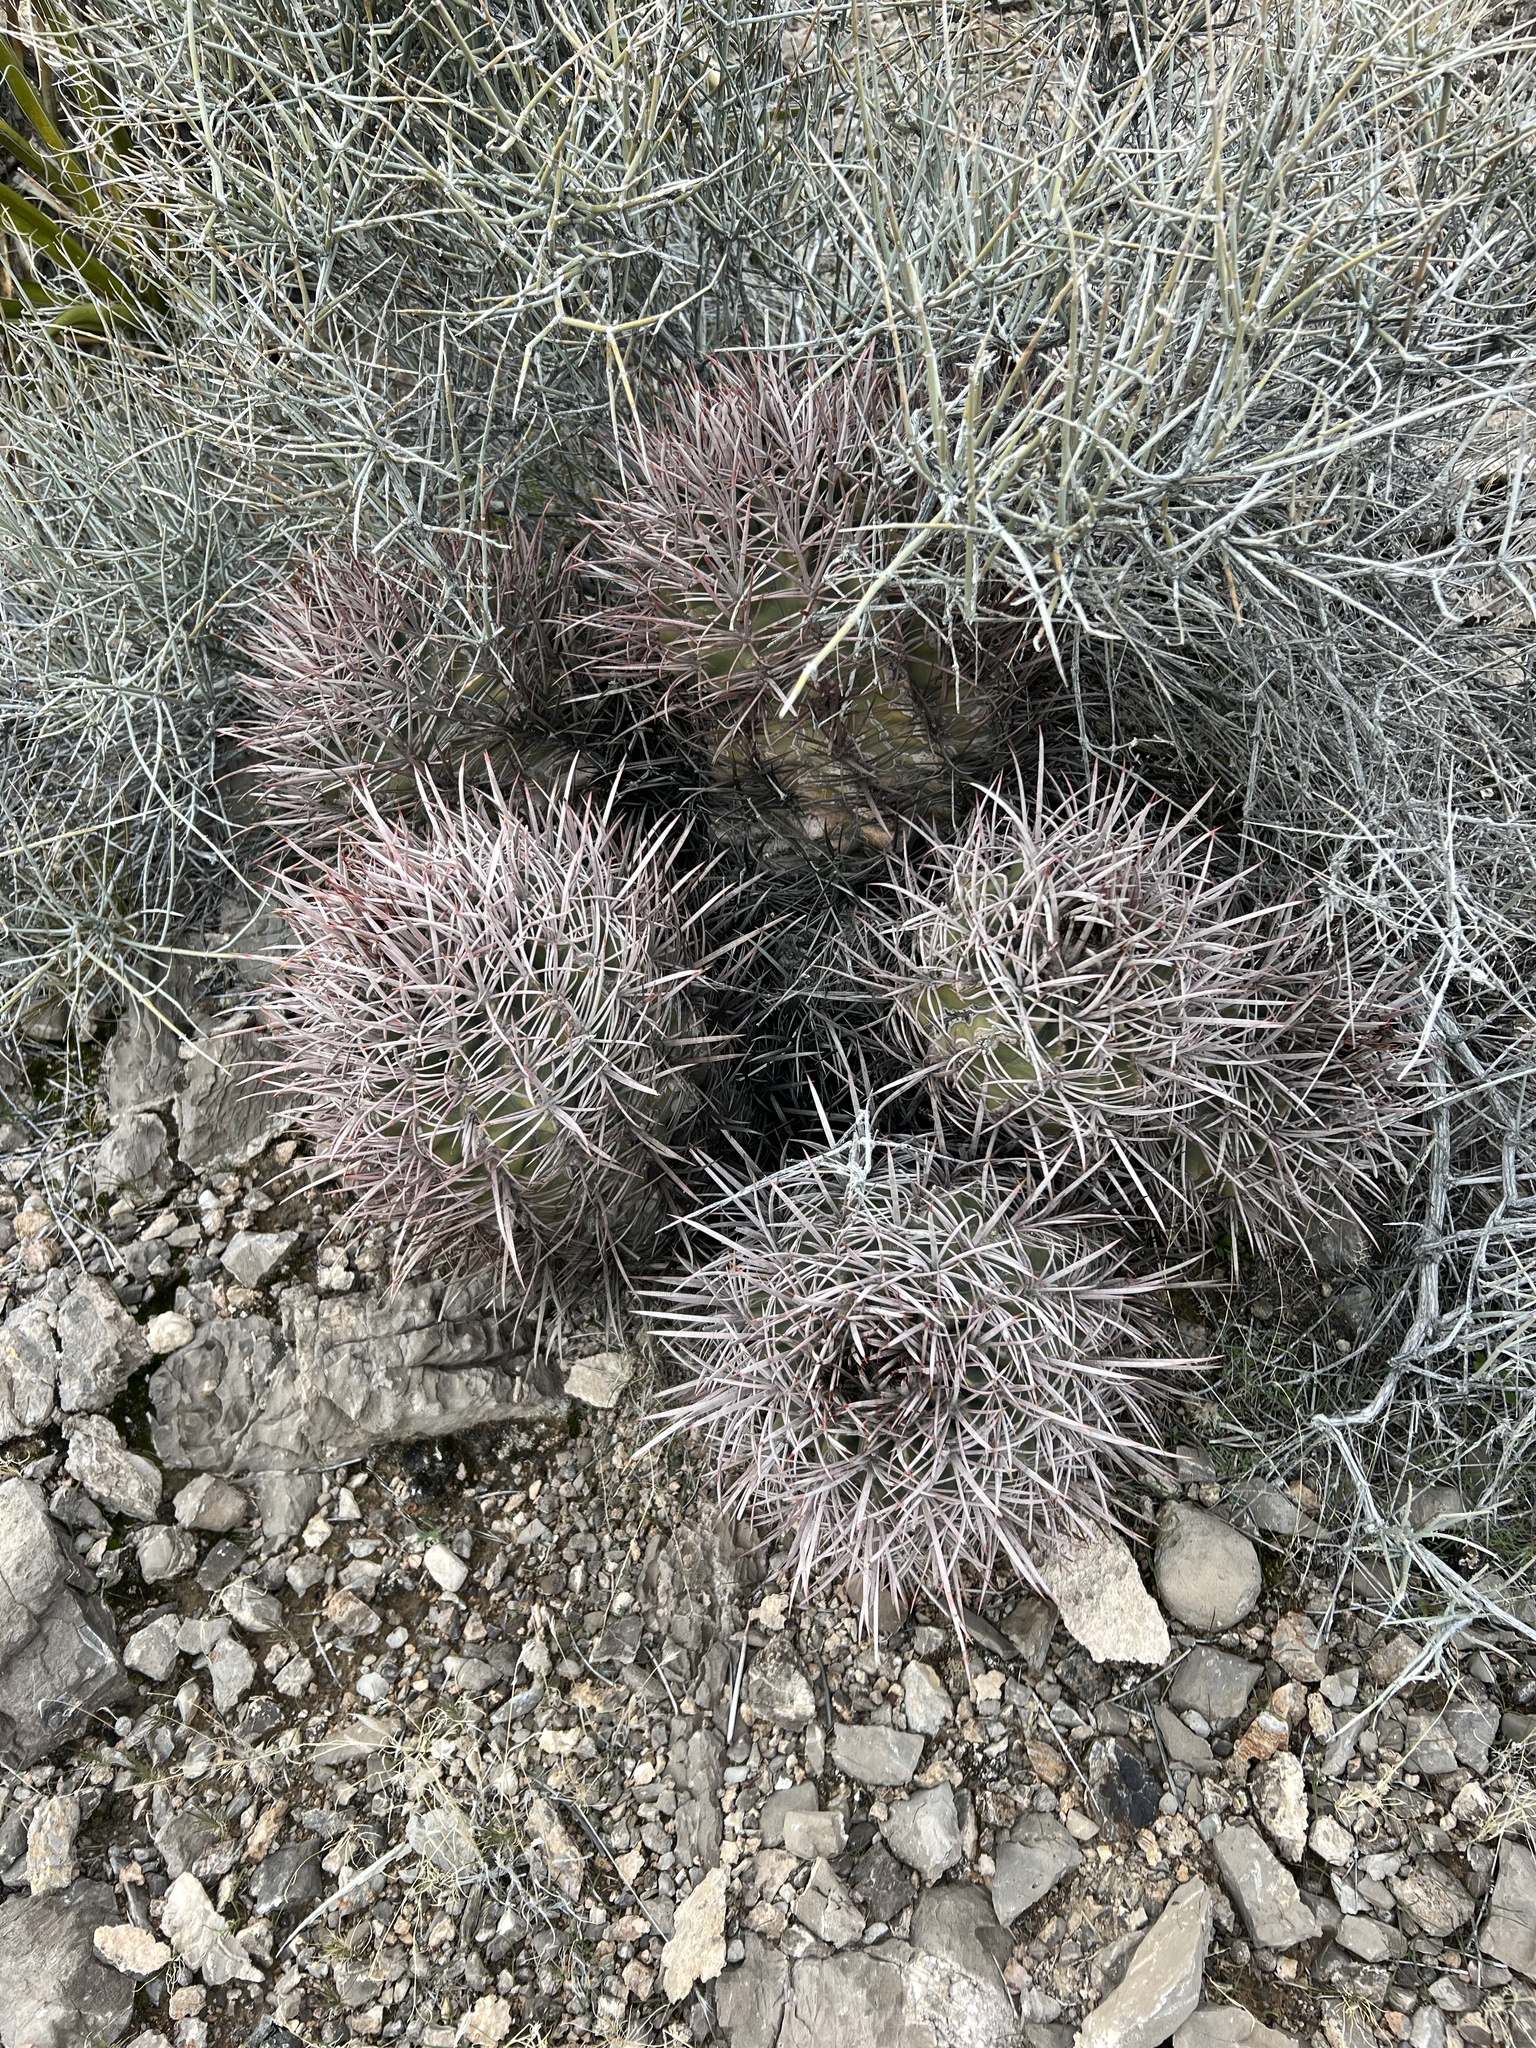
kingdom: Plantae
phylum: Tracheophyta
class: Magnoliopsida
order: Caryophyllales
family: Cactaceae
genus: Echinocactus
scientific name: Echinocactus polycephalus
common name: Cottontop cactus
